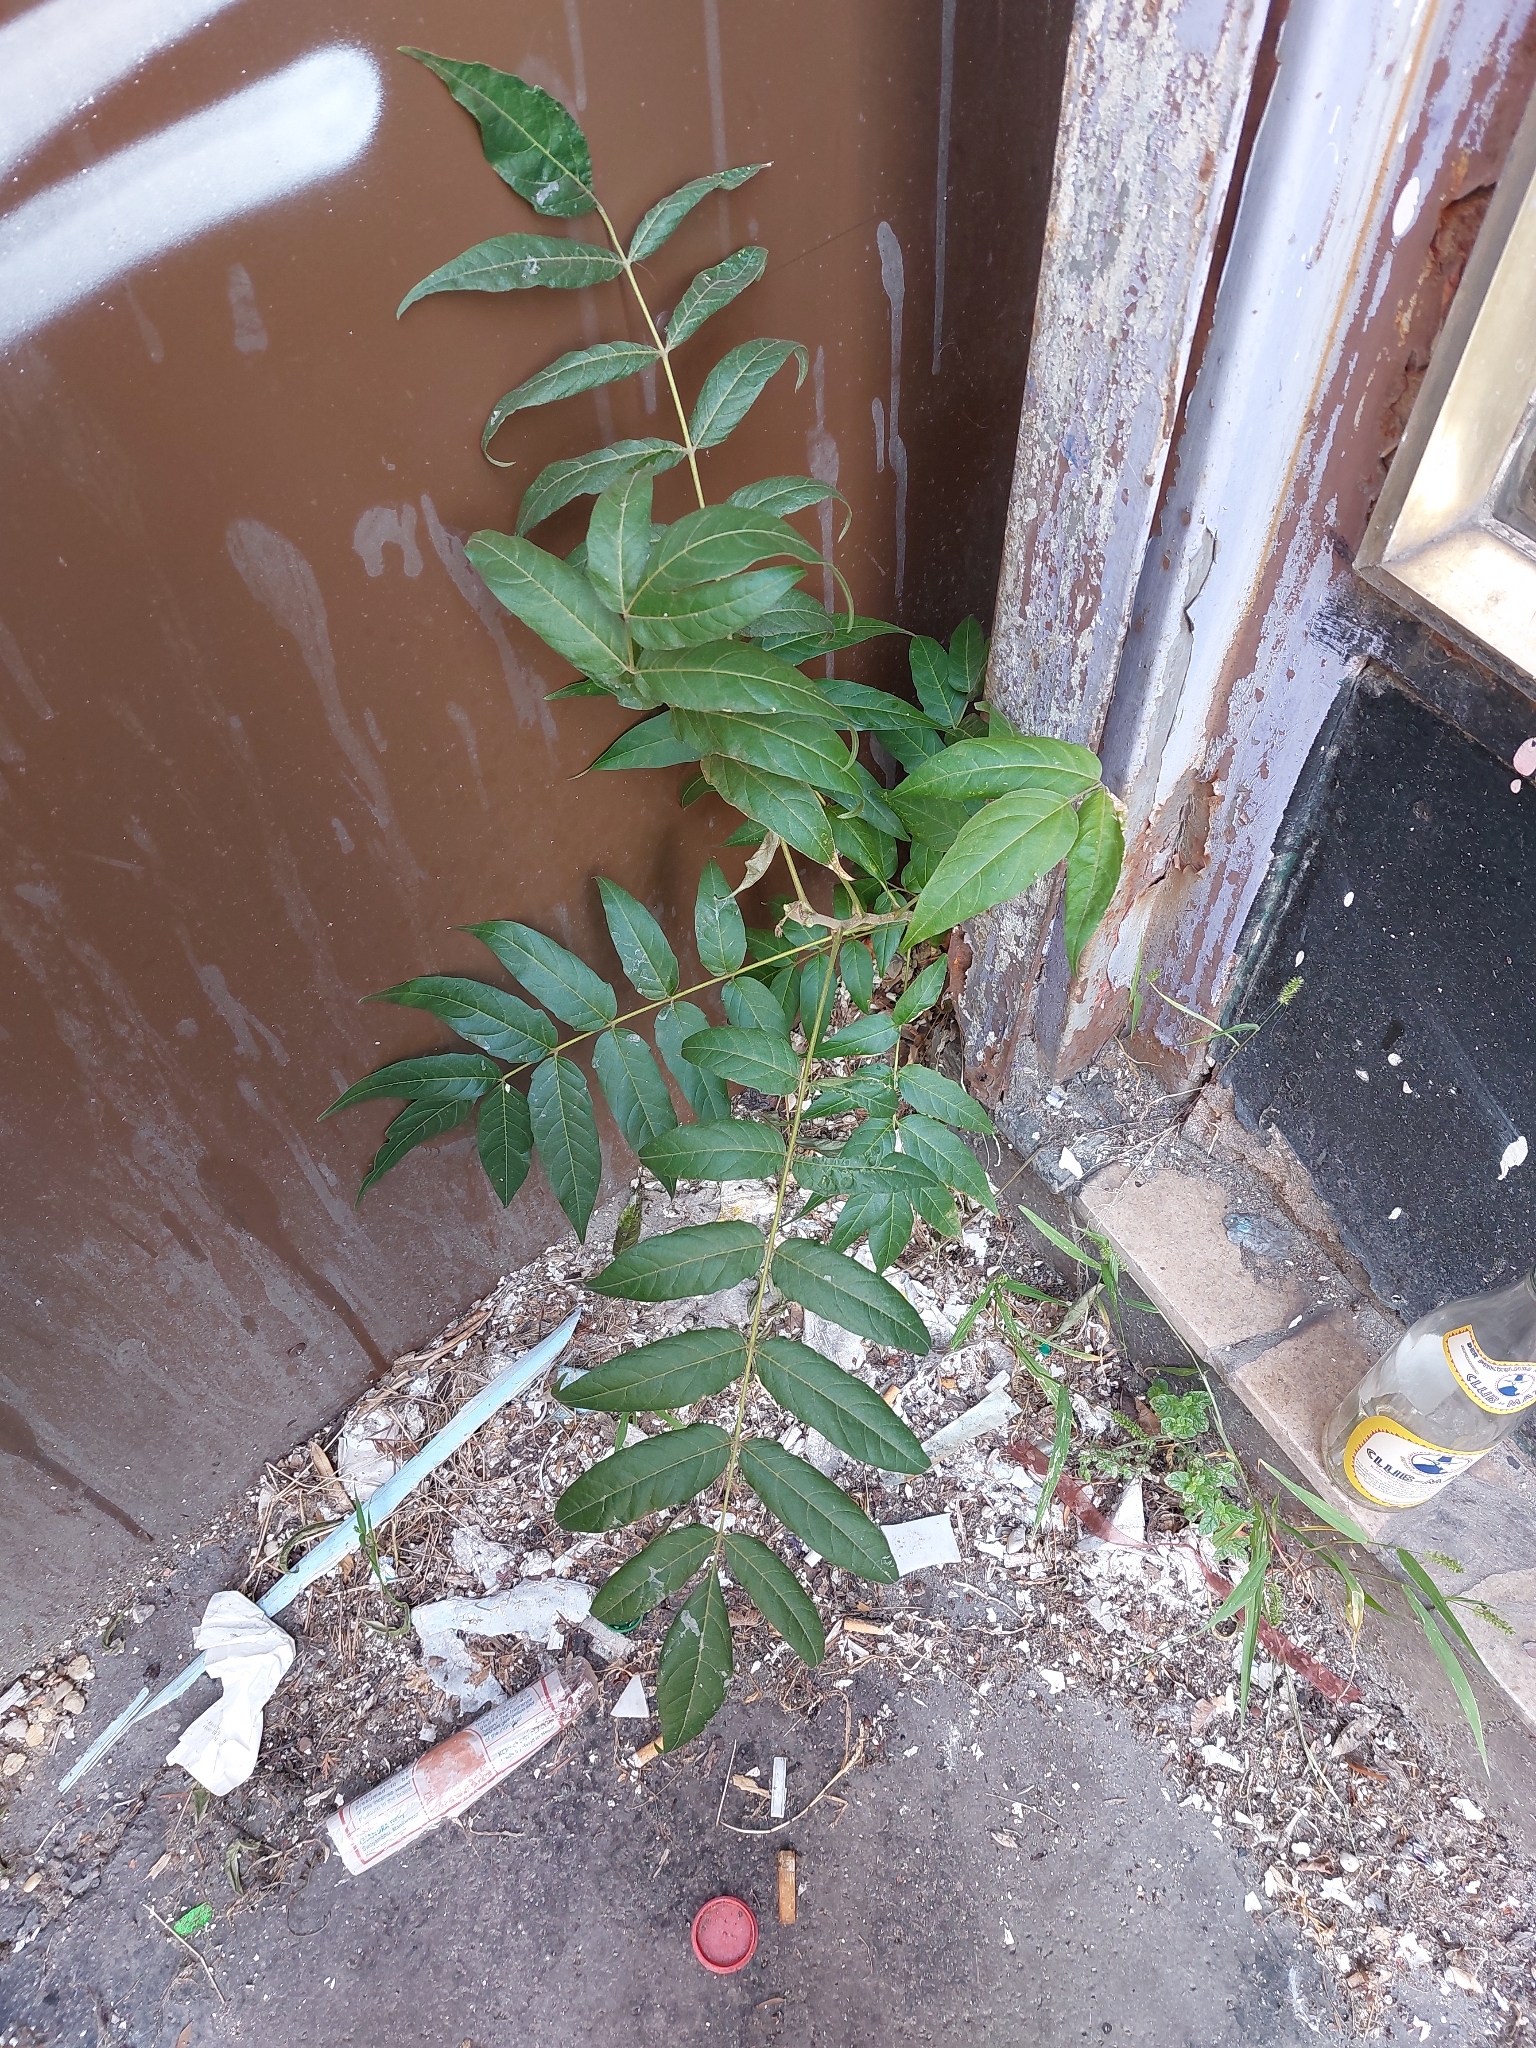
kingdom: Plantae
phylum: Tracheophyta
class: Magnoliopsida
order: Sapindales
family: Simaroubaceae
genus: Ailanthus
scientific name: Ailanthus altissima
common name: Tree-of-heaven
